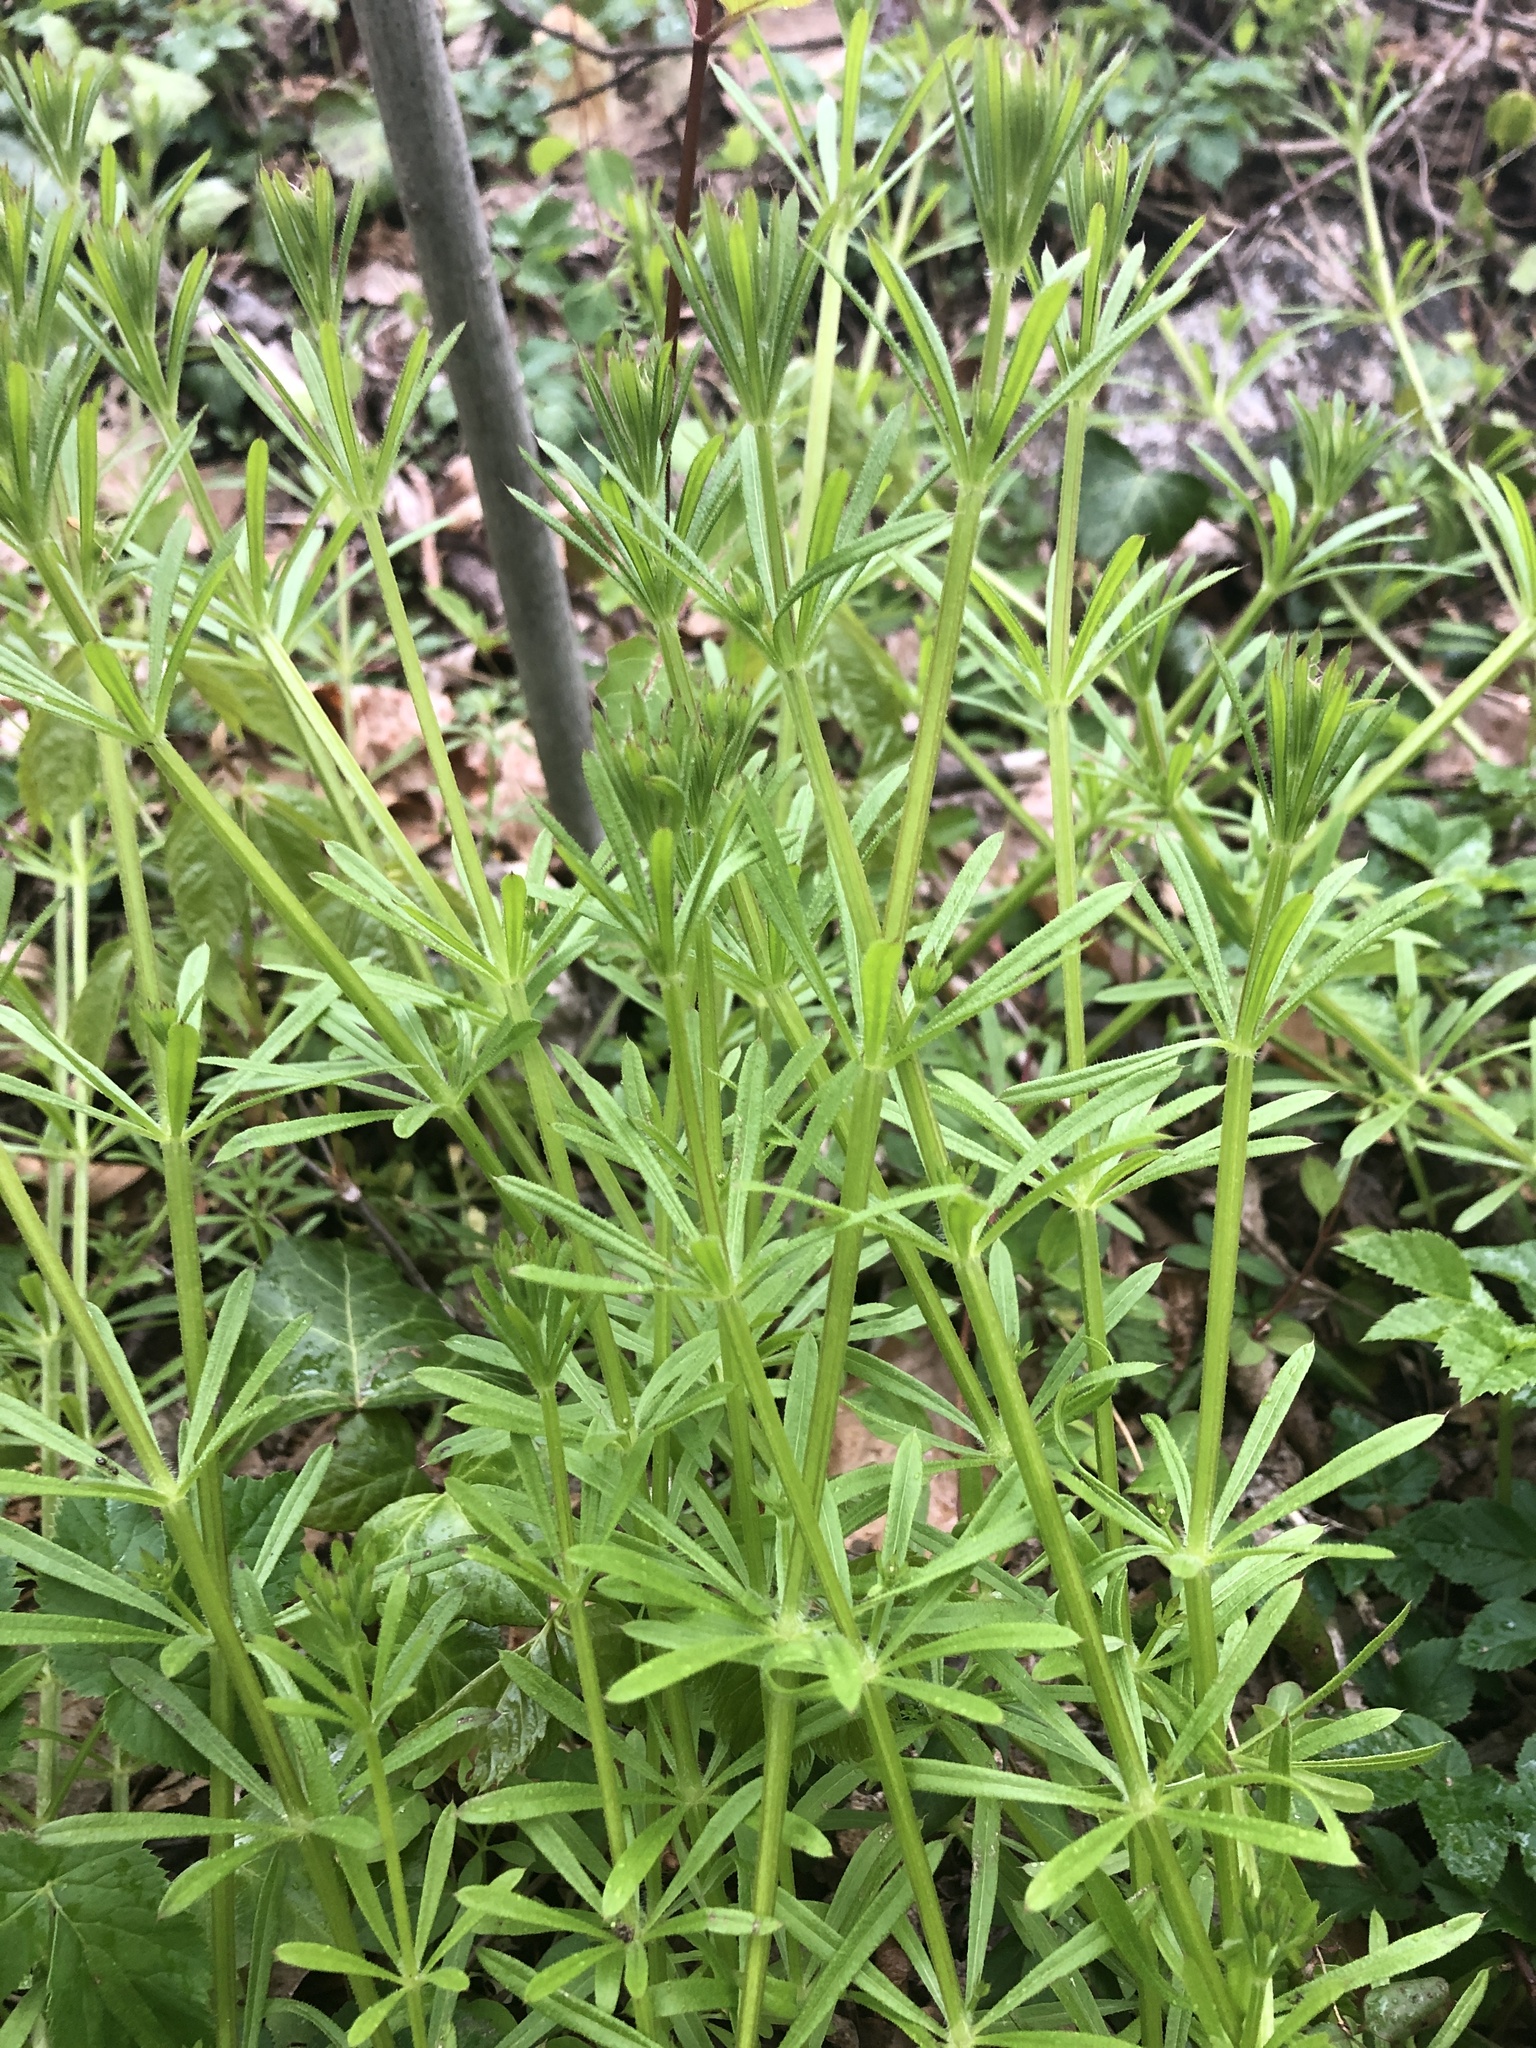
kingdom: Plantae
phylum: Tracheophyta
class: Magnoliopsida
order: Gentianales
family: Rubiaceae
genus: Galium
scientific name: Galium aparine
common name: Cleavers
